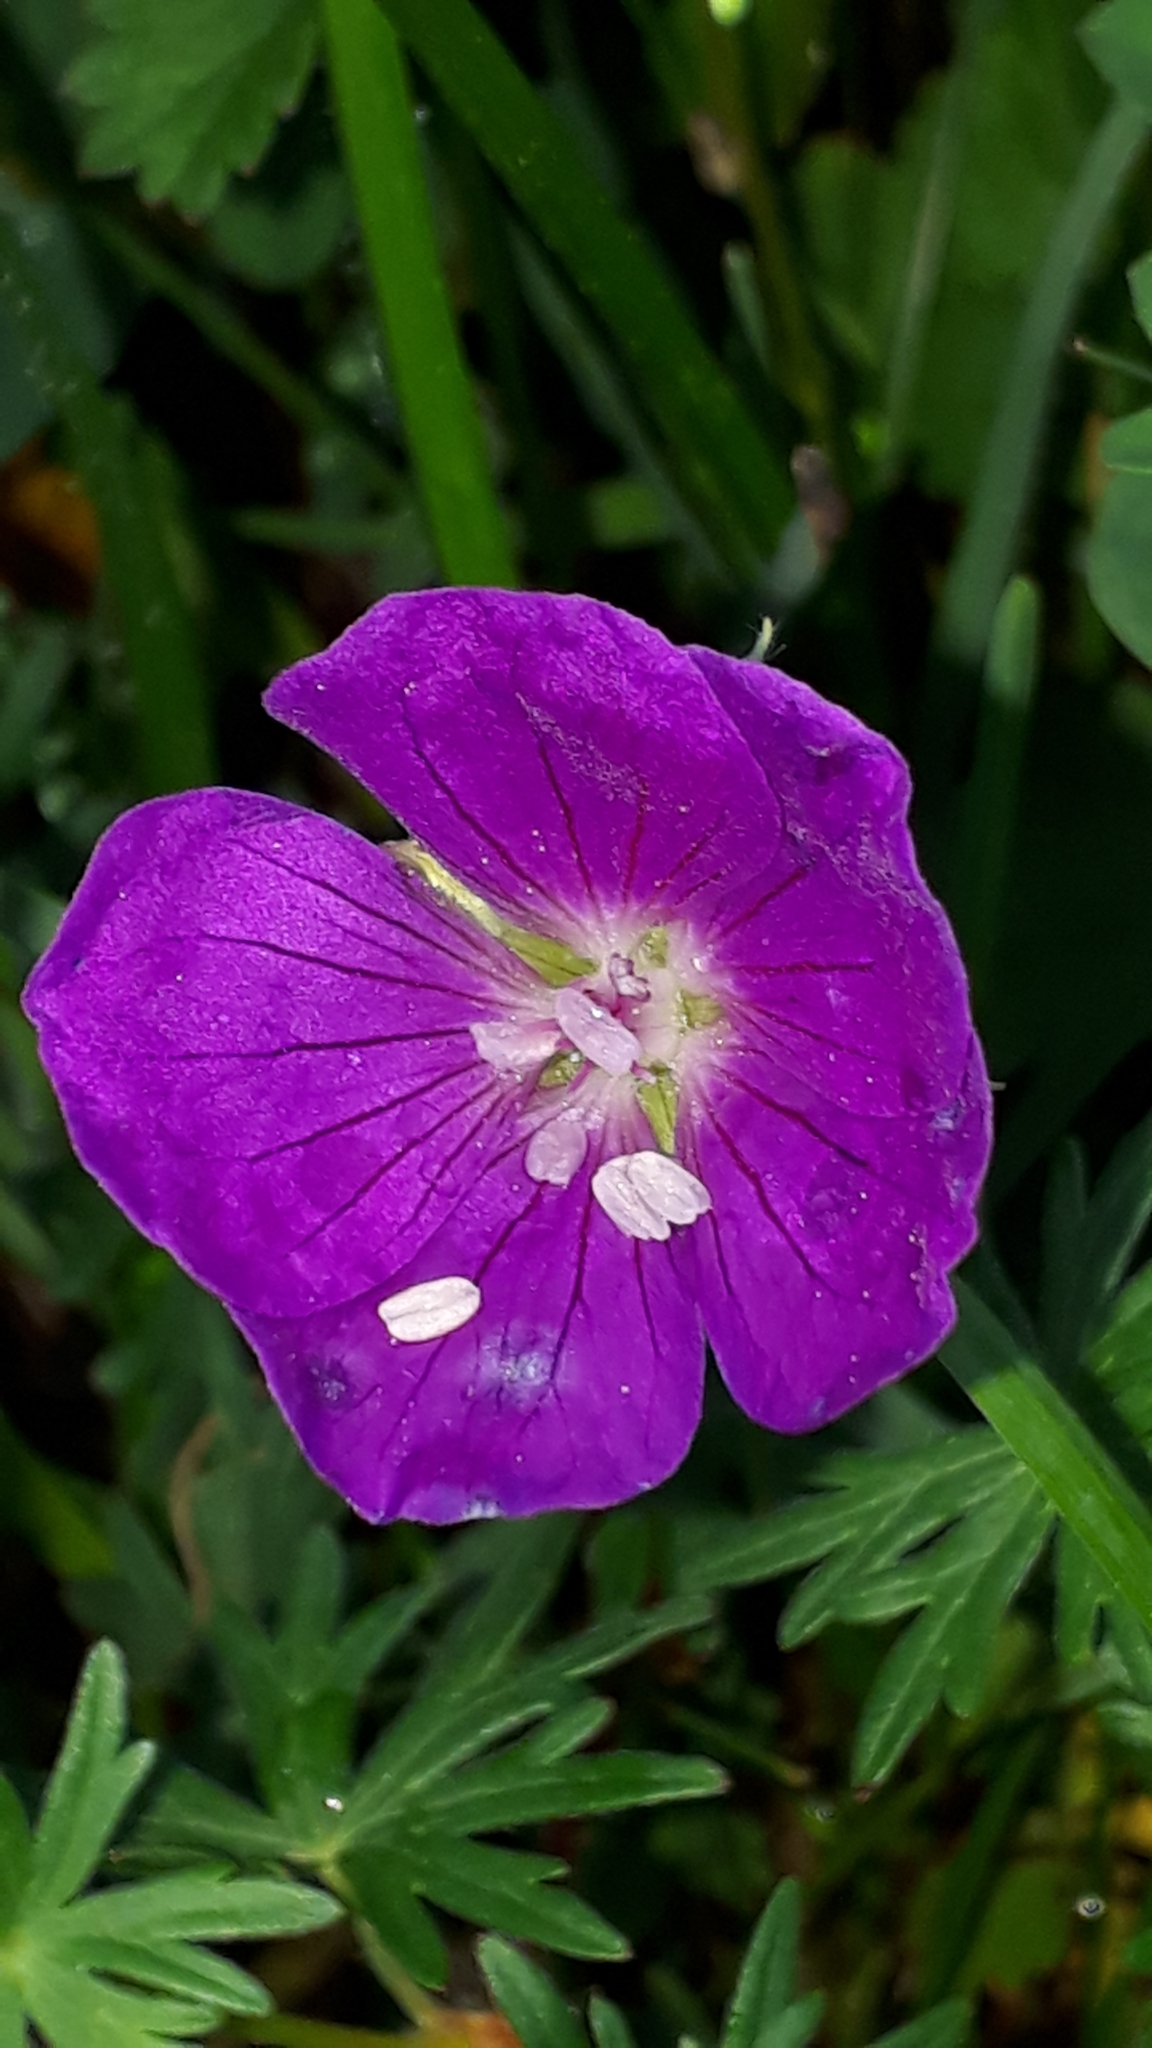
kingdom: Plantae
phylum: Tracheophyta
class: Magnoliopsida
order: Geraniales
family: Geraniaceae
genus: Geranium
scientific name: Geranium sanguineum
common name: Bloody crane's-bill
